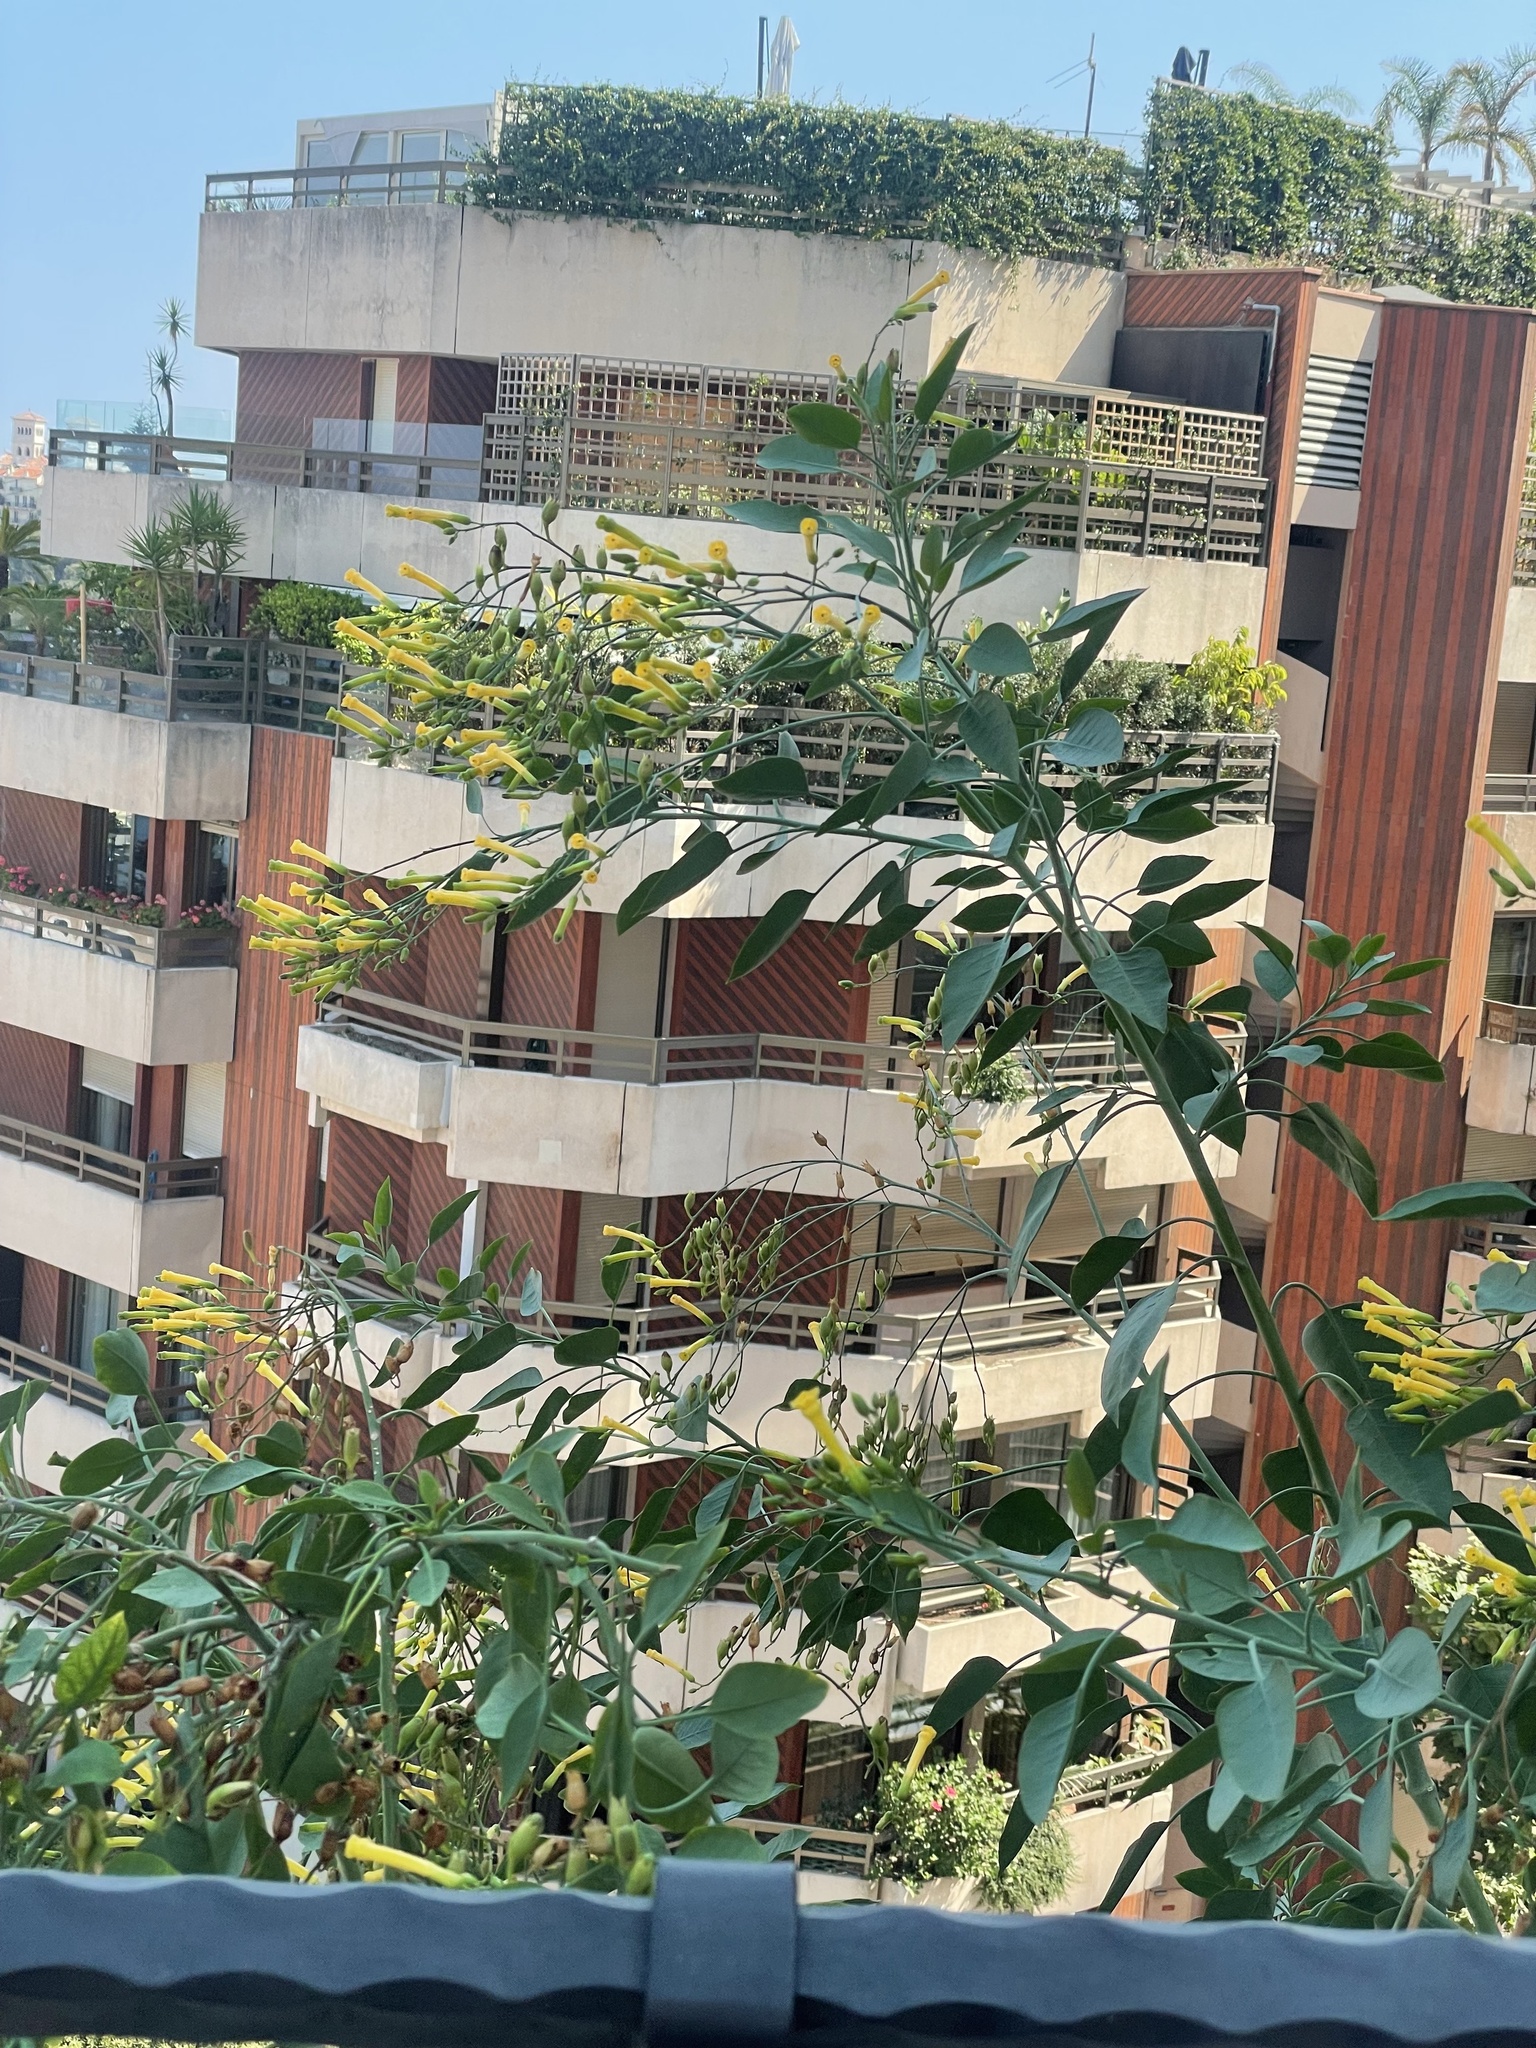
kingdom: Plantae
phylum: Tracheophyta
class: Magnoliopsida
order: Solanales
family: Solanaceae
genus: Nicotiana
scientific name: Nicotiana glauca
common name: Tree tobacco
